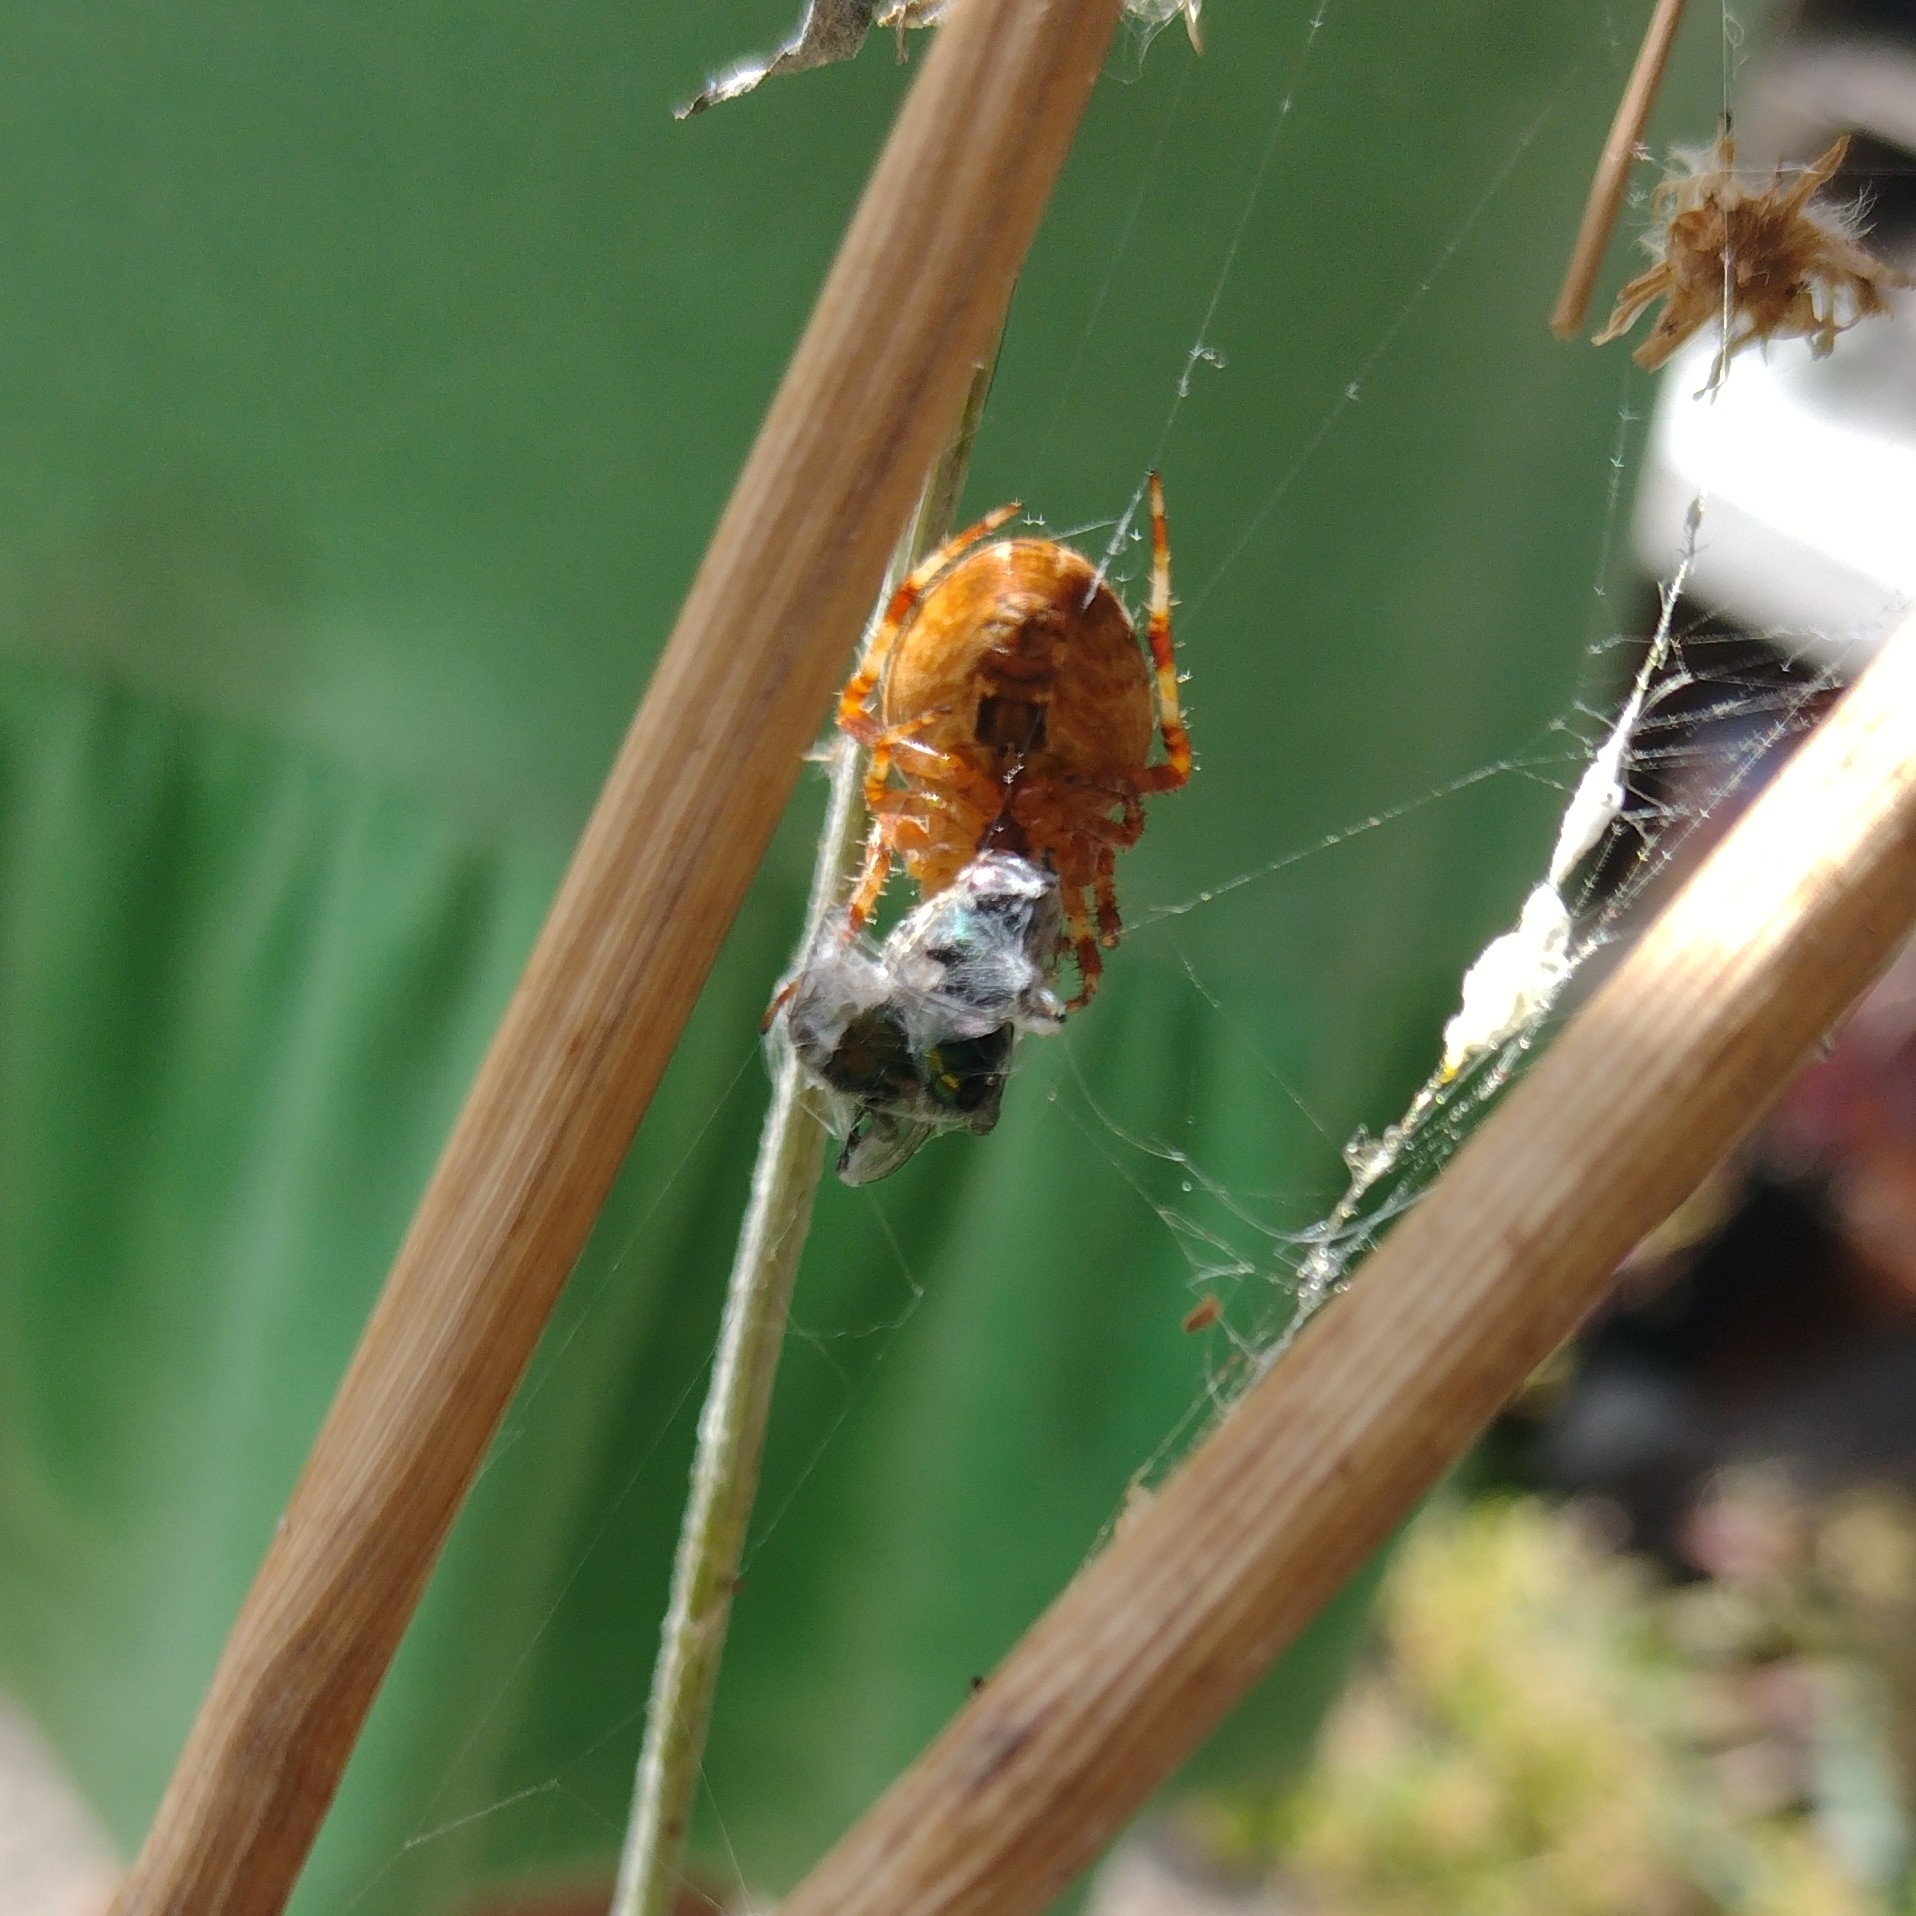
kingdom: Animalia
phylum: Arthropoda
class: Arachnida
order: Araneae
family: Araneidae
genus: Araneus
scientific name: Araneus diadematus
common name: Cross orbweaver
